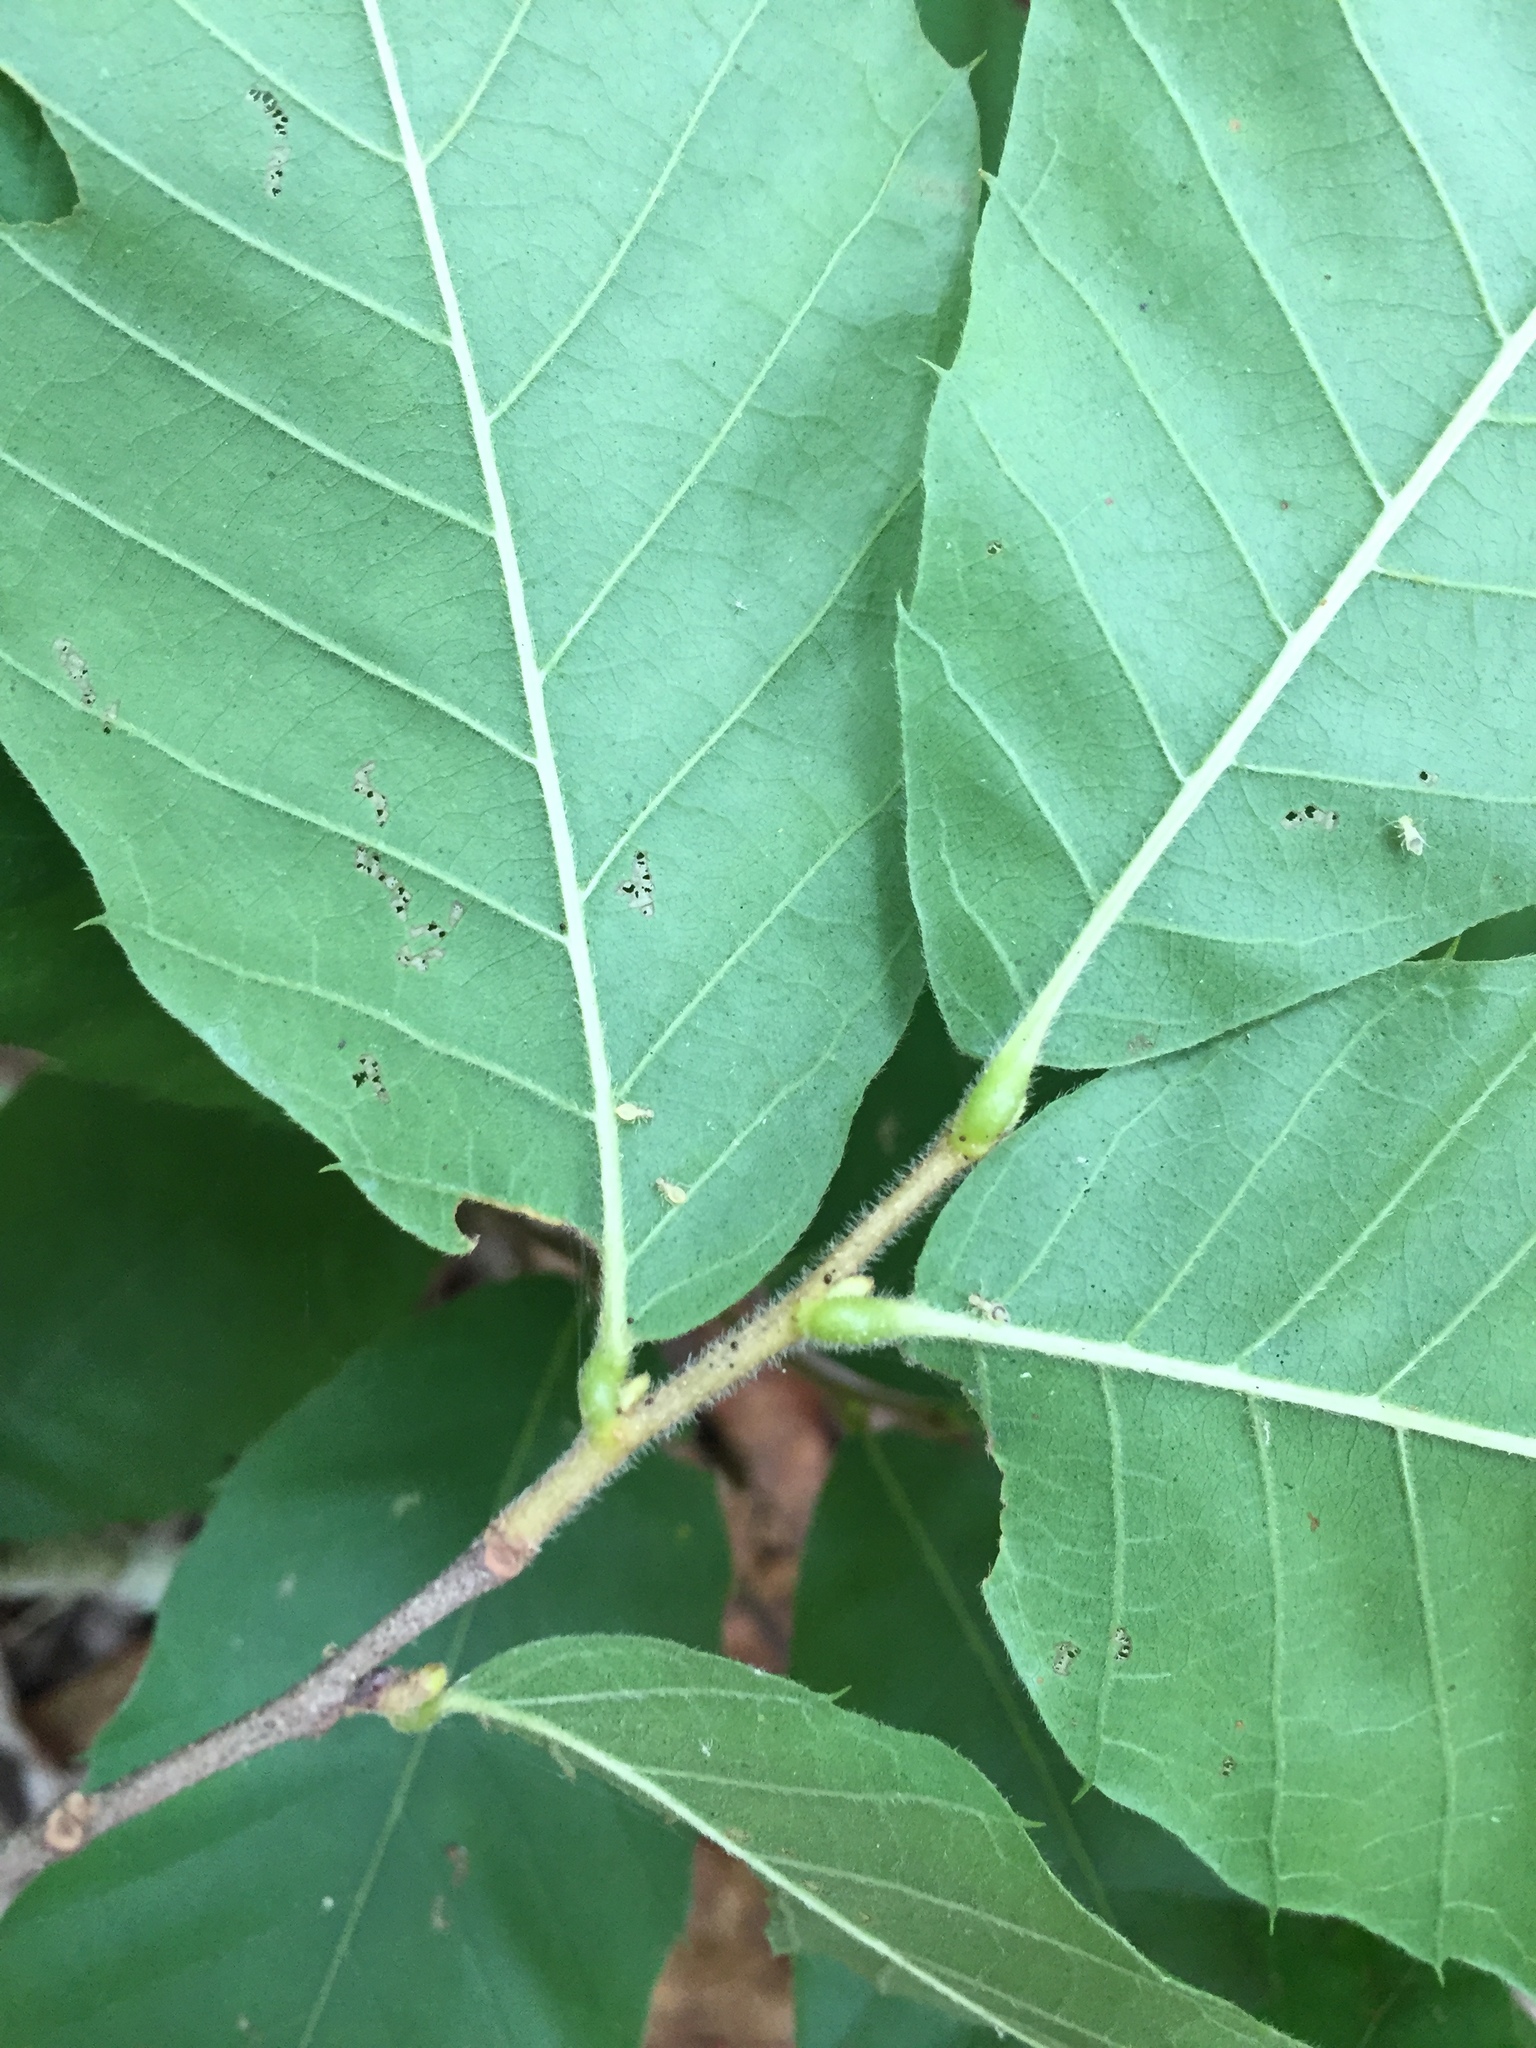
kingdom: Plantae
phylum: Tracheophyta
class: Magnoliopsida
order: Fagales
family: Fagaceae
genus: Castanea
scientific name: Castanea pumila
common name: Chinkapin
